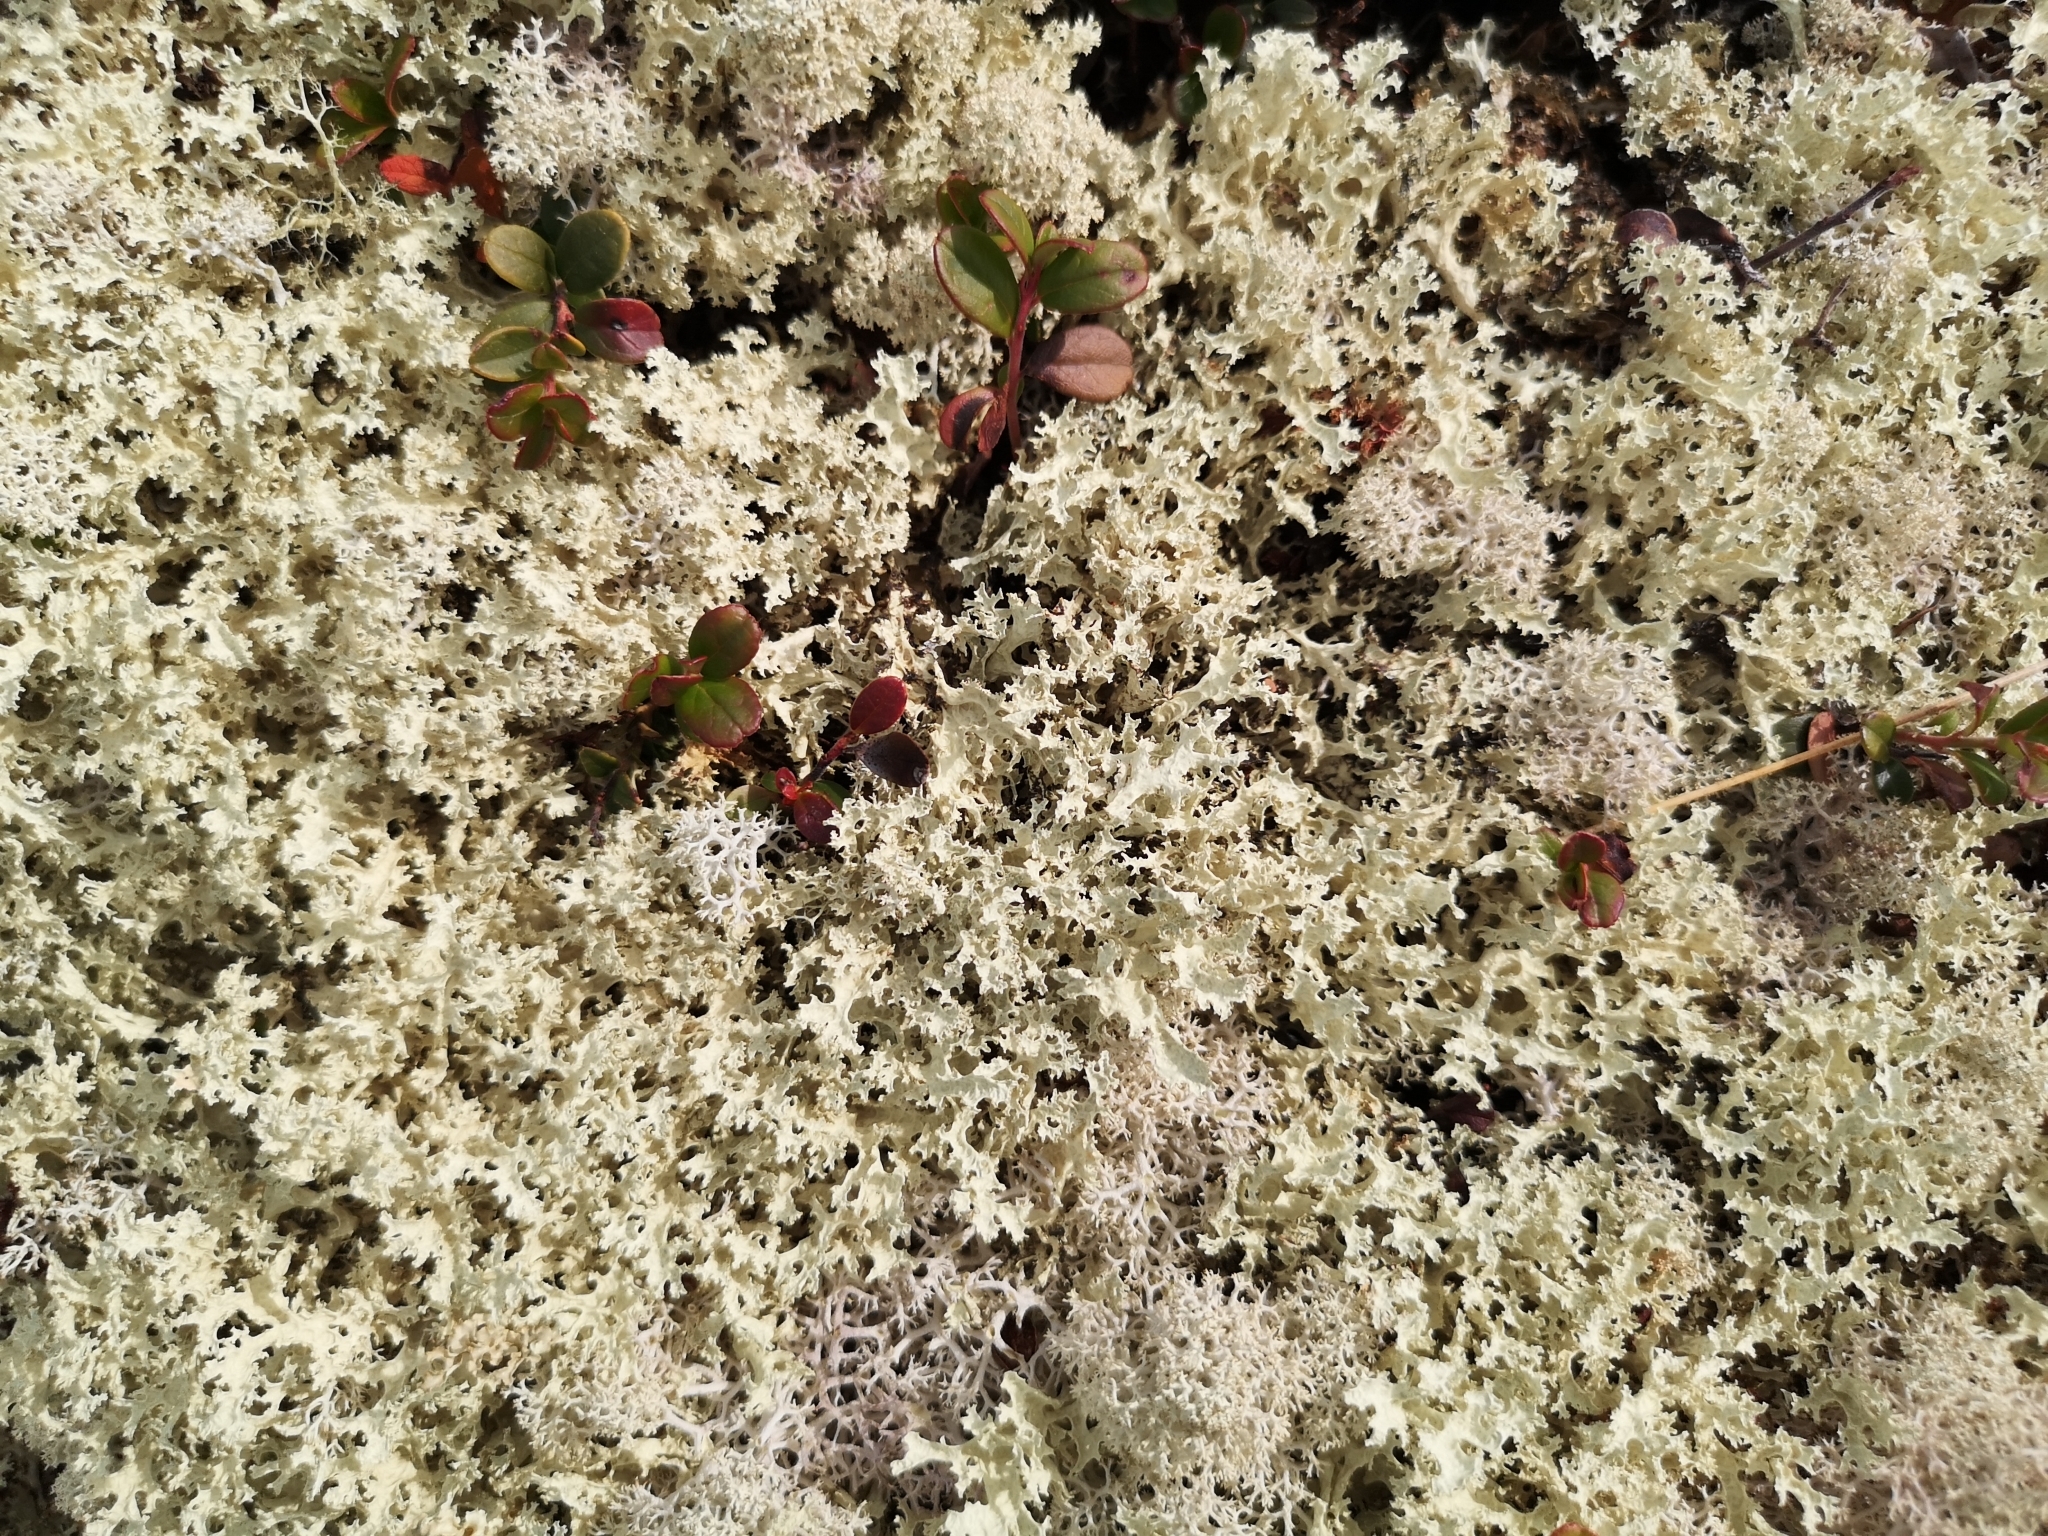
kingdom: Fungi
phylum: Ascomycota
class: Lecanoromycetes
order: Lecanorales
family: Parmeliaceae
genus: Nephromopsis
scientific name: Nephromopsis nivalis
